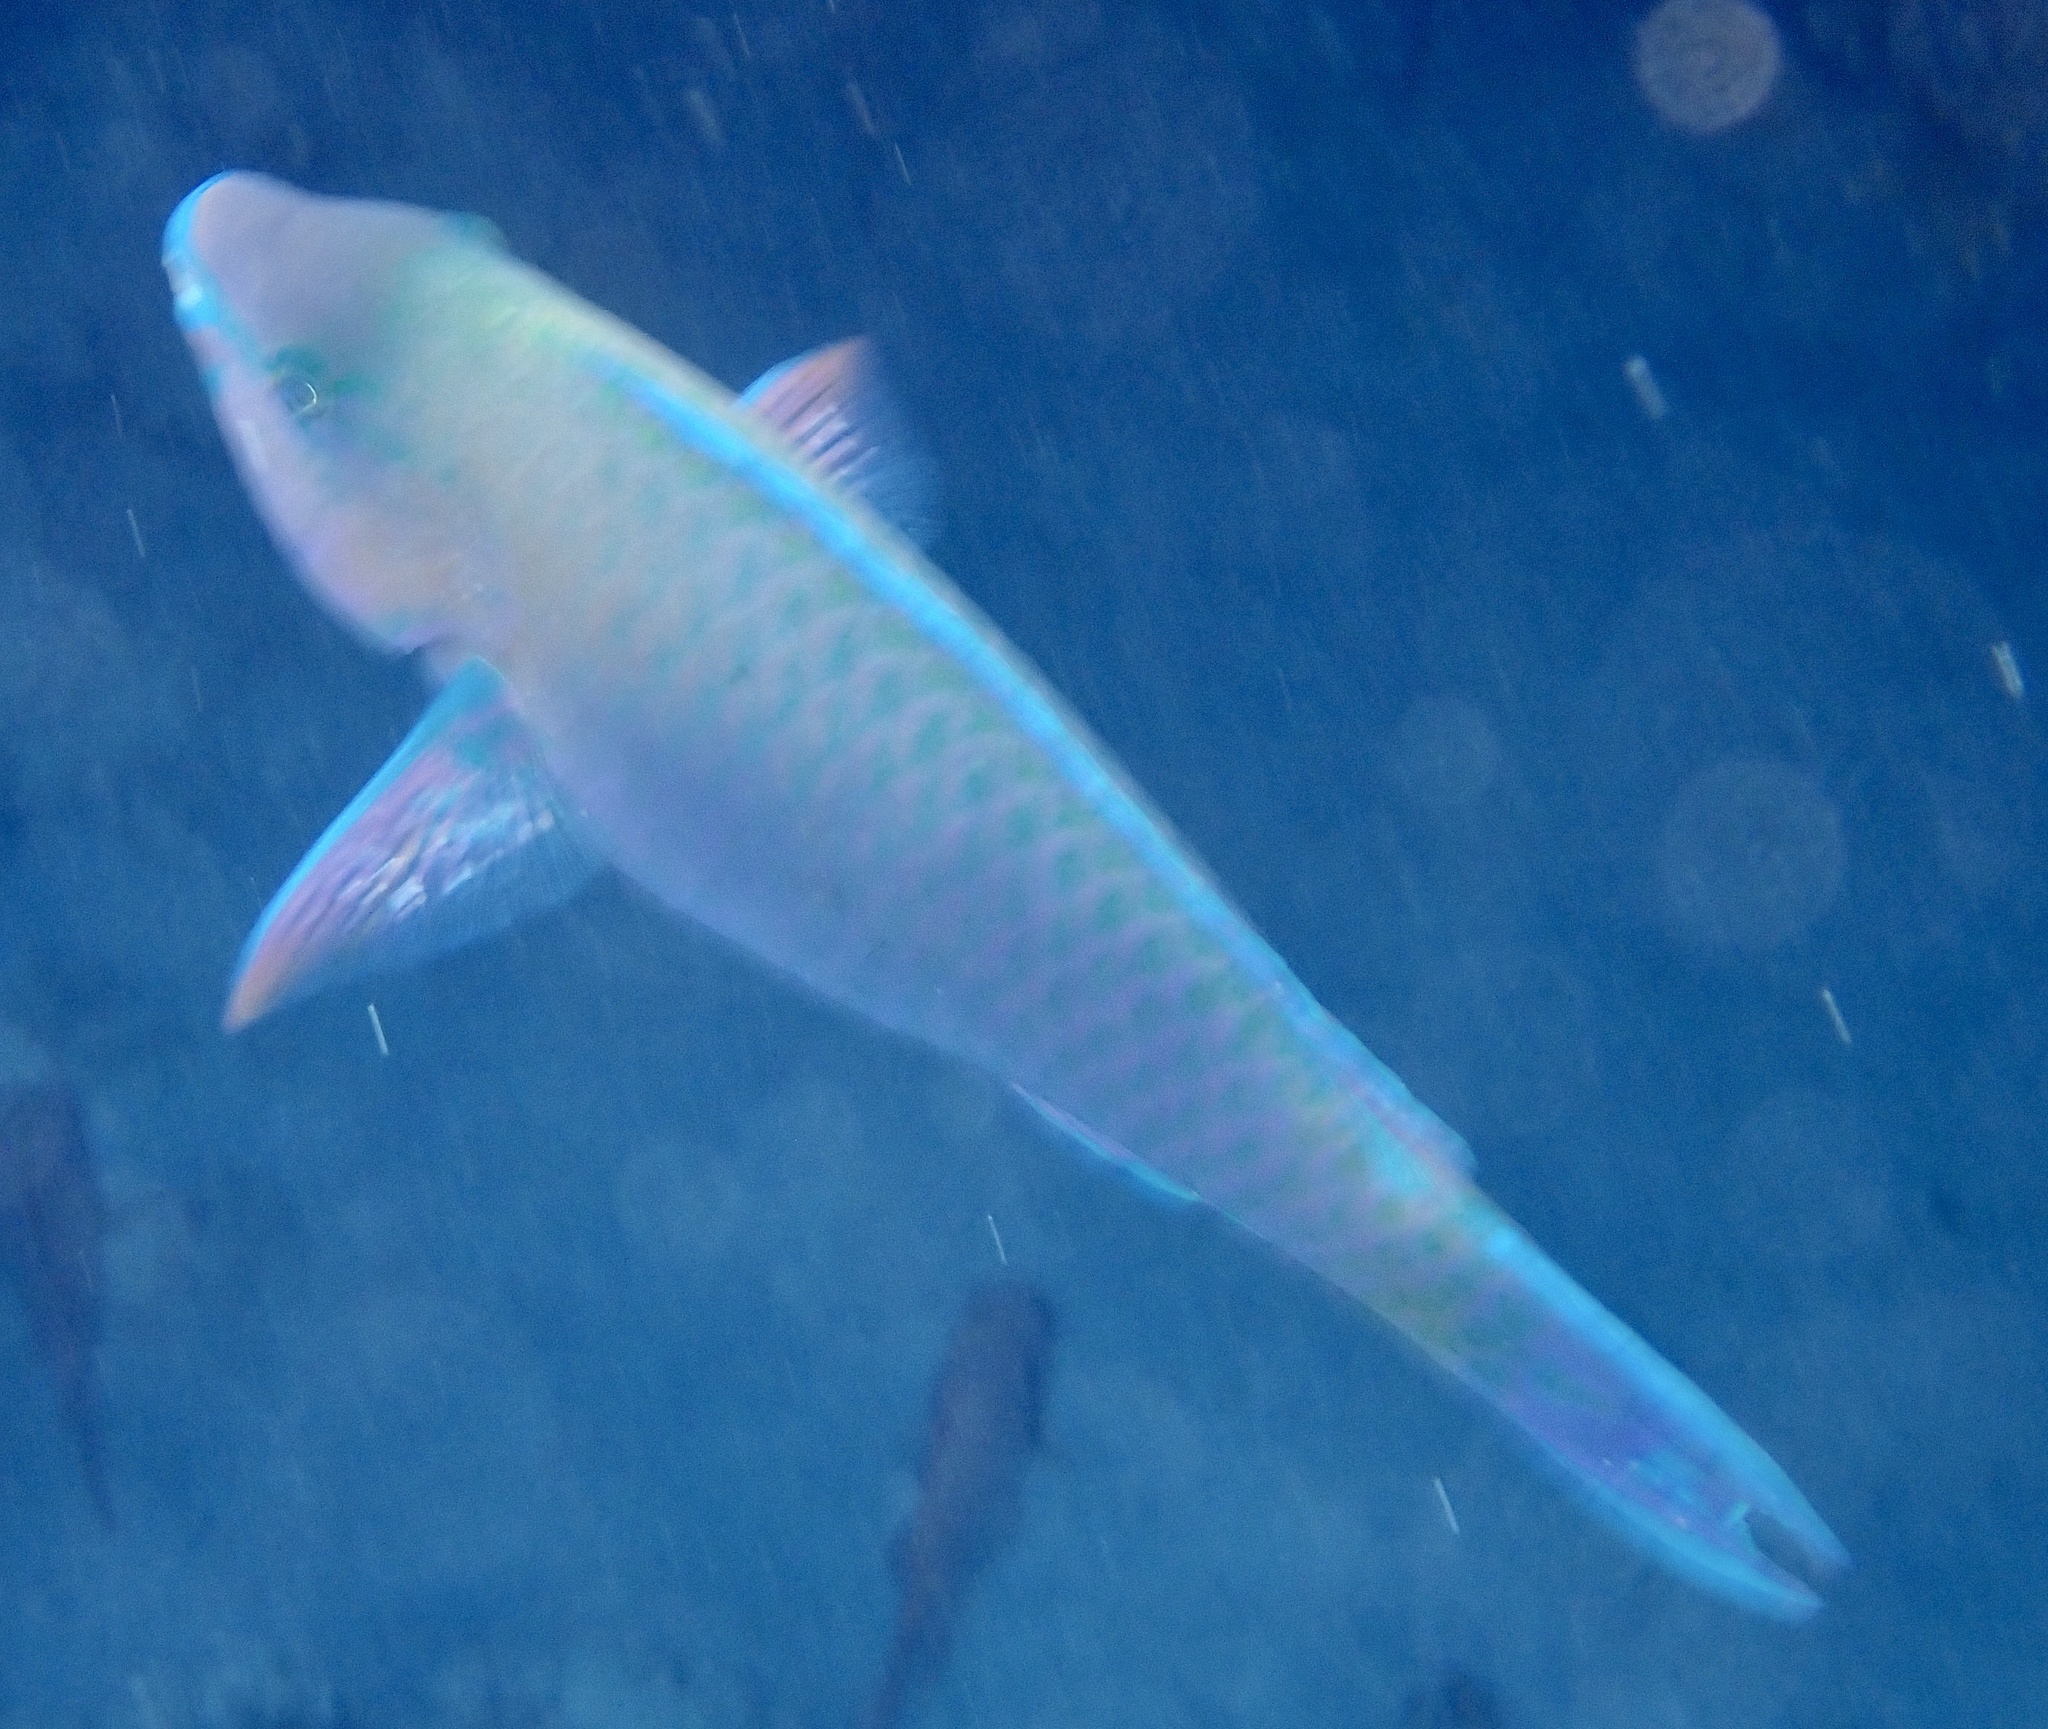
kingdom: Animalia
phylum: Chordata
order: Perciformes
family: Scaridae
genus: Scarus
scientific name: Scarus psittacus
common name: Palenose parrotfish
